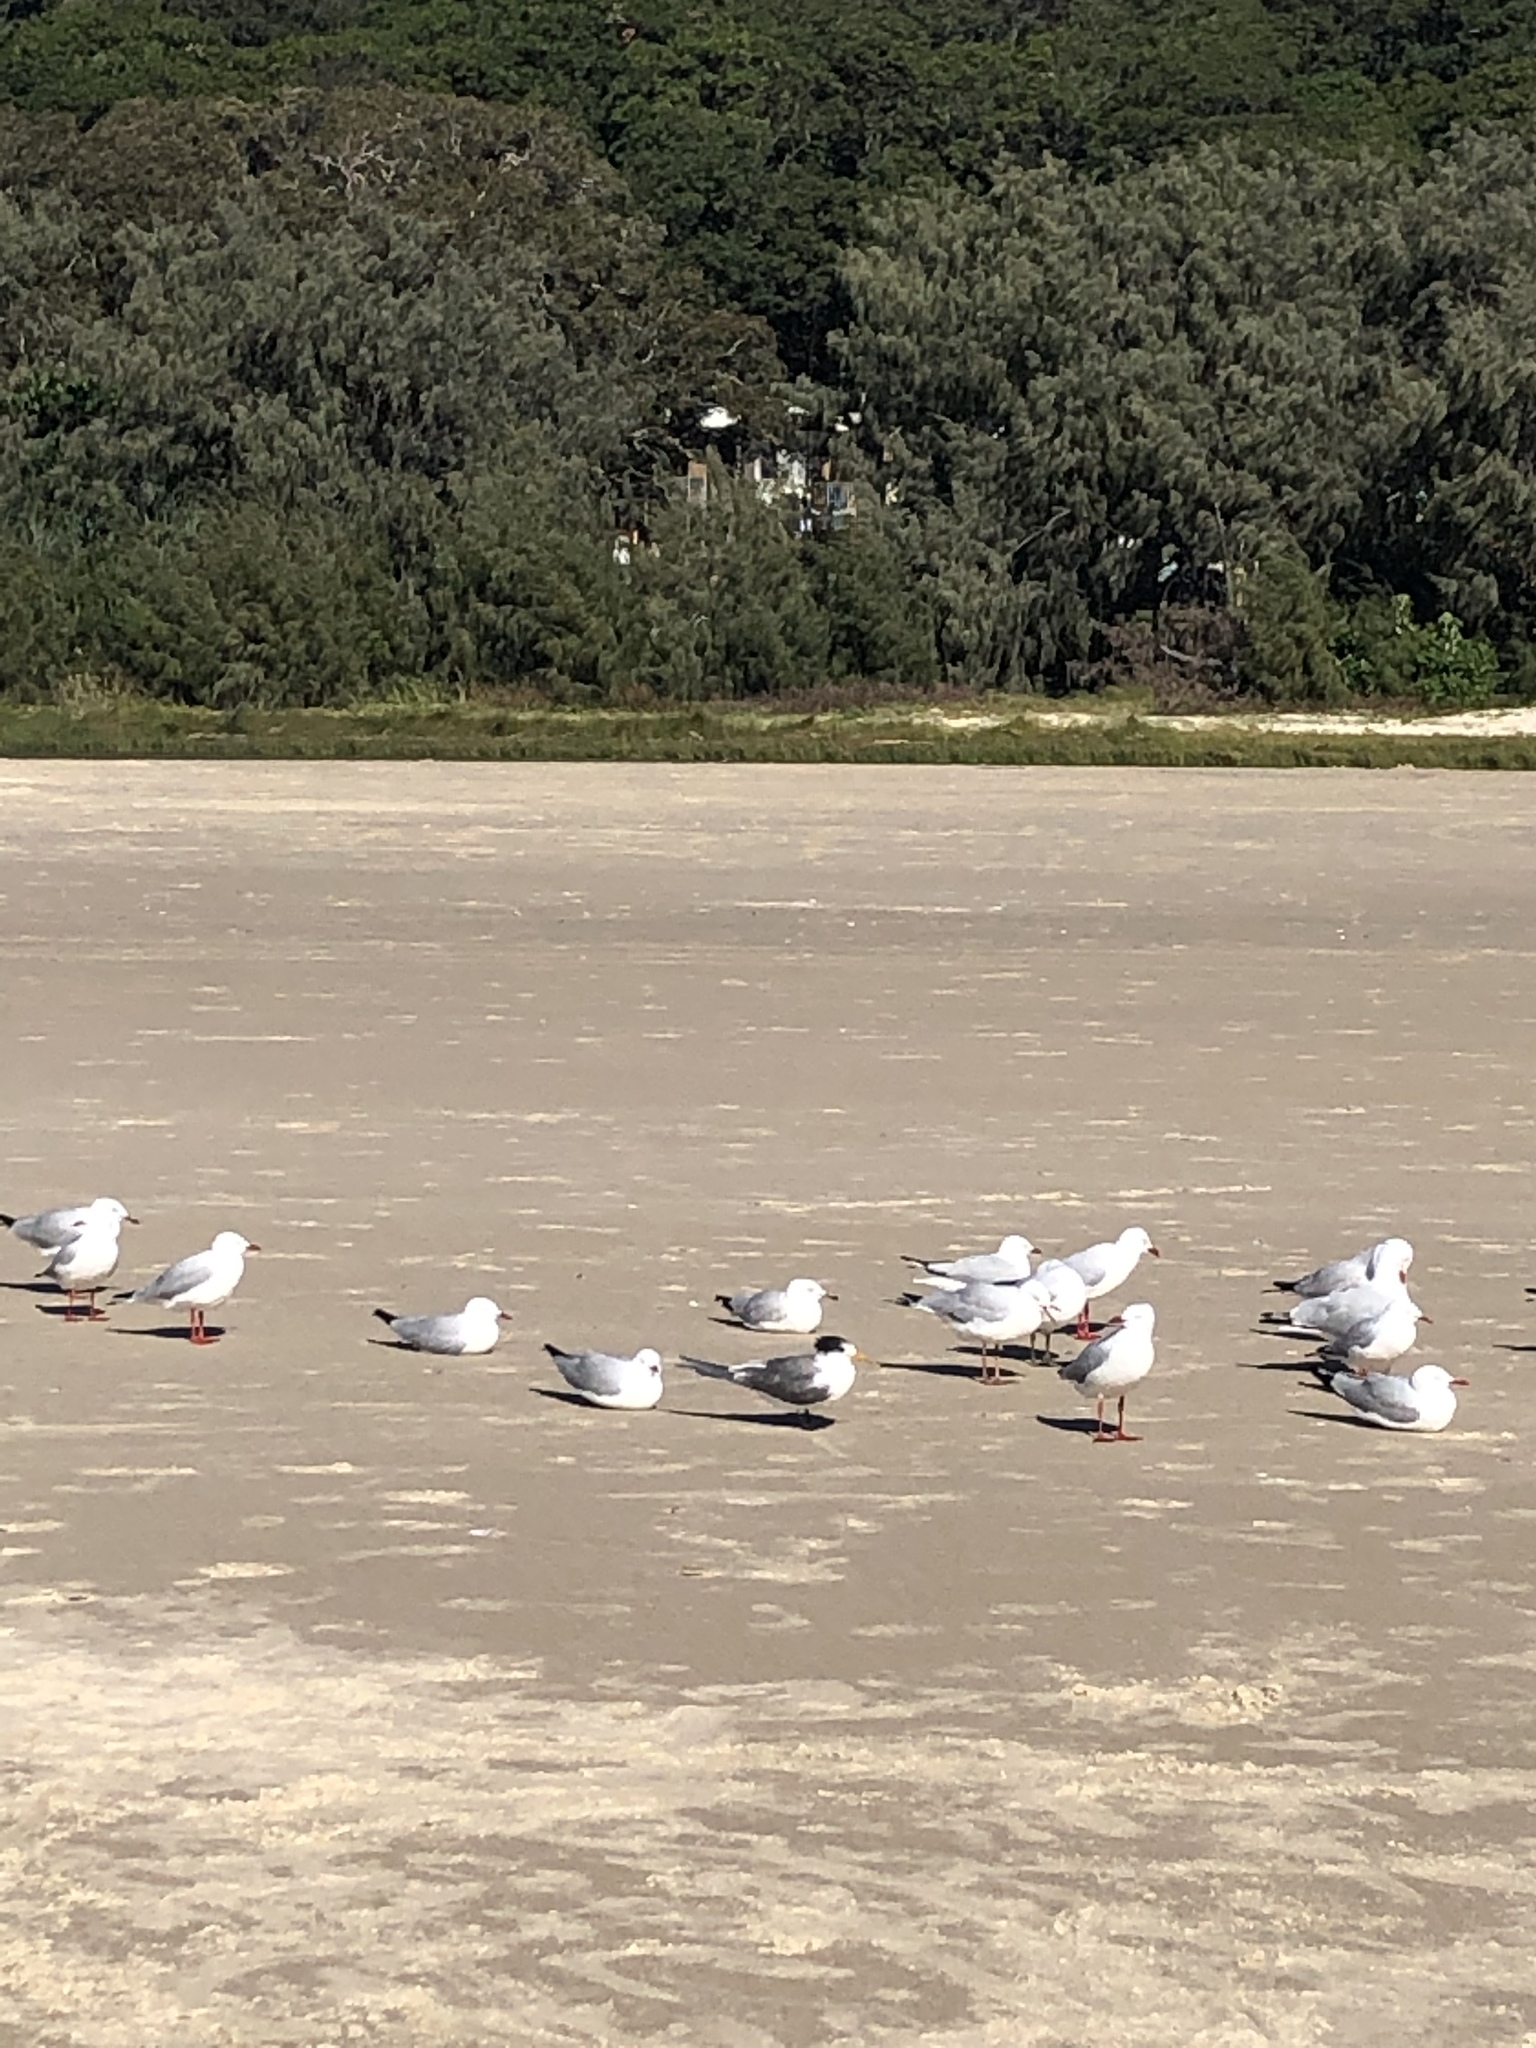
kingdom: Animalia
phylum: Chordata
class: Aves
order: Charadriiformes
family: Laridae
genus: Thalasseus
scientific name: Thalasseus bergii
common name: Greater crested tern
